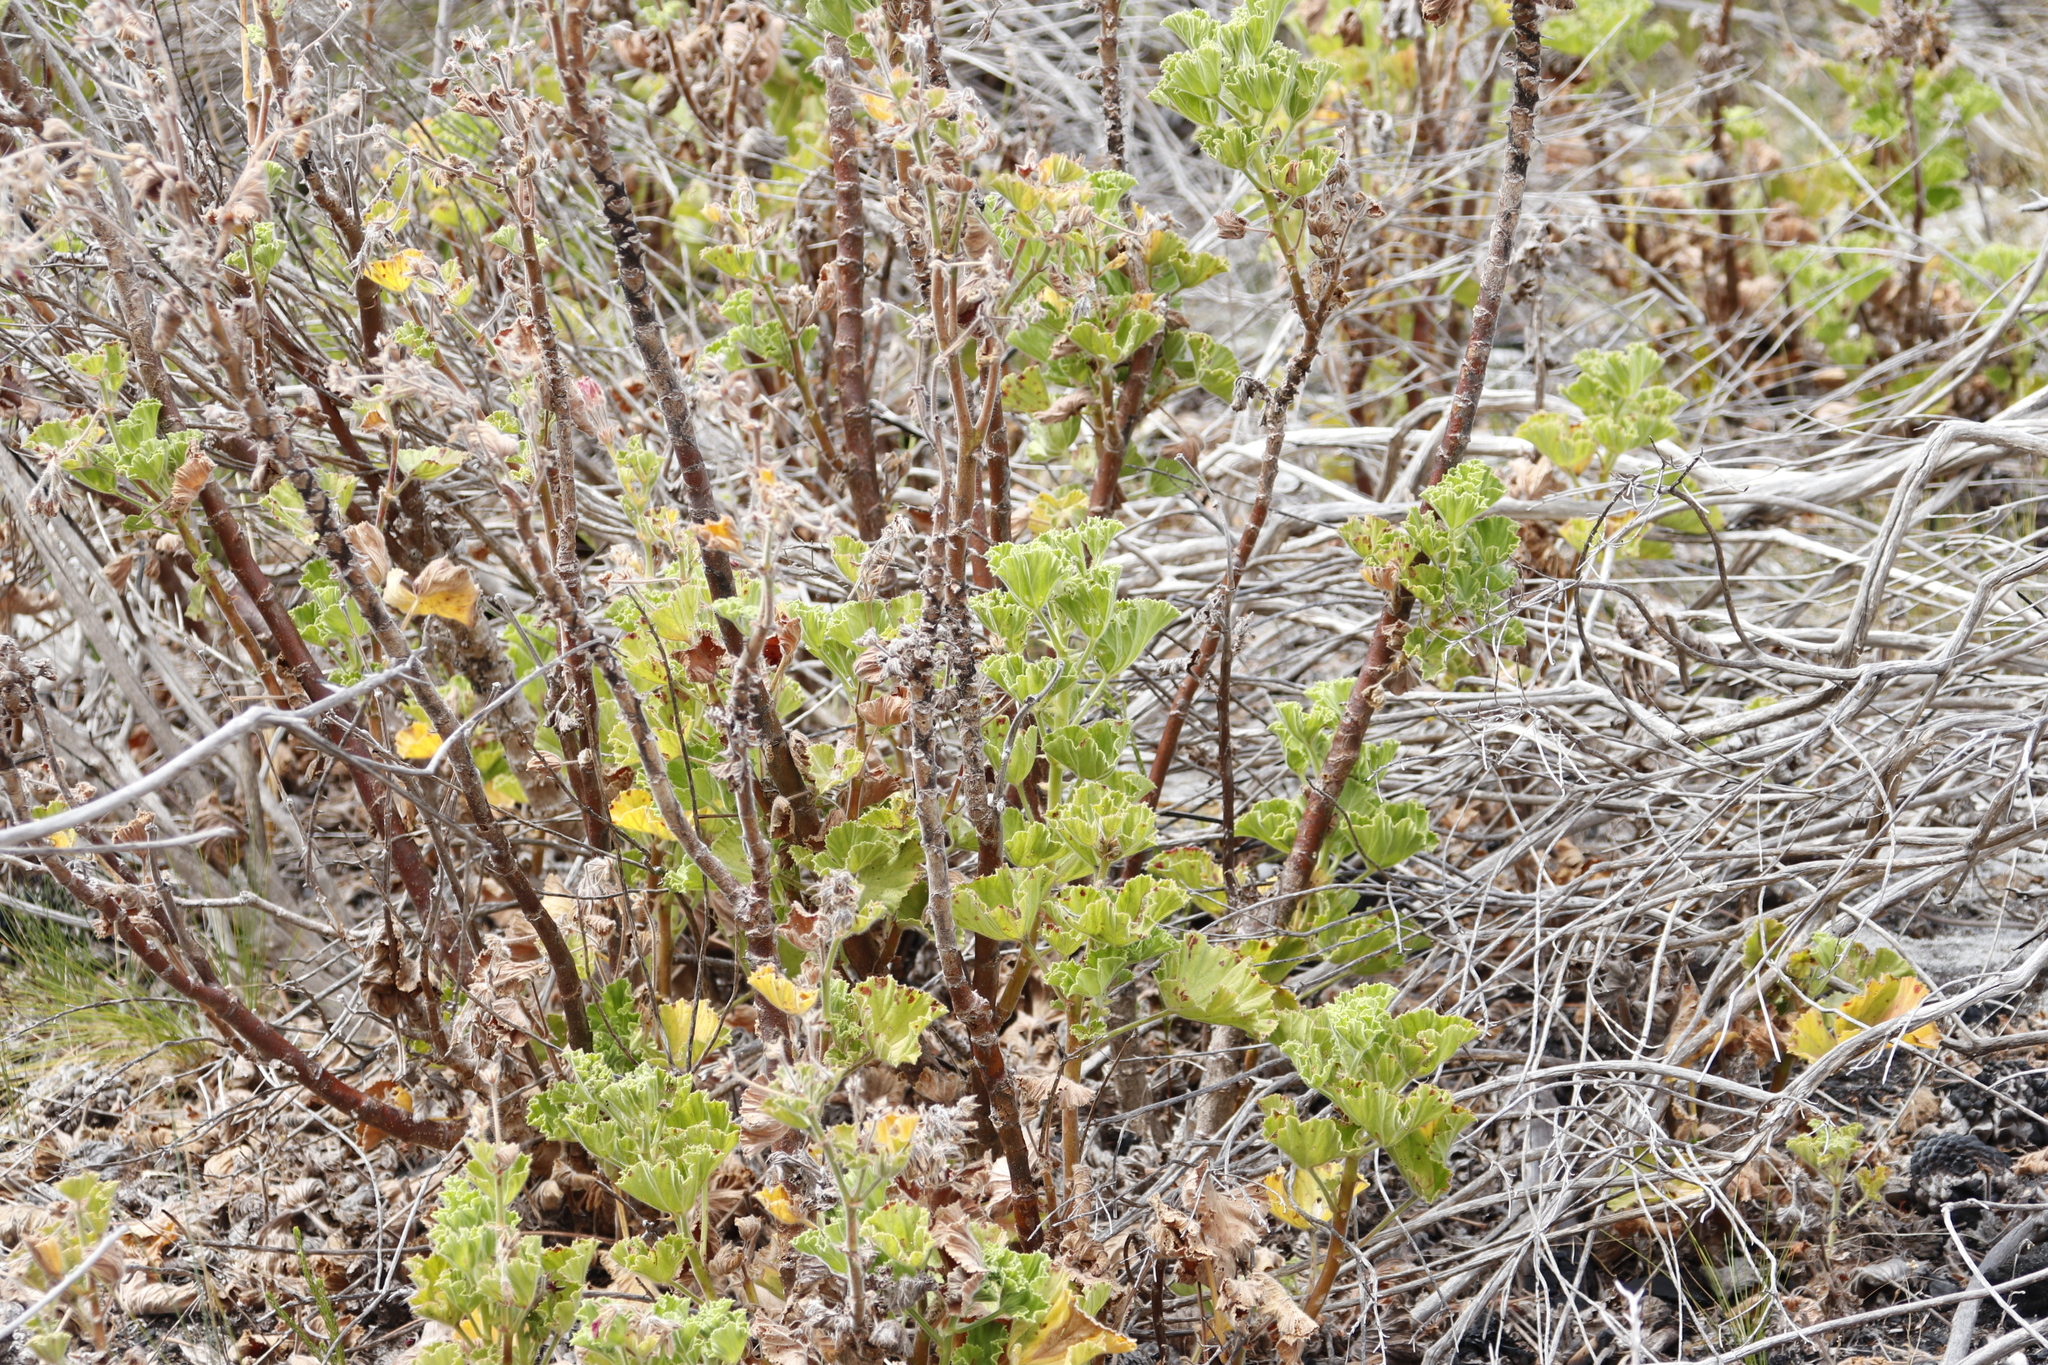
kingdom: Plantae
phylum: Tracheophyta
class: Magnoliopsida
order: Geraniales
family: Geraniaceae
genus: Pelargonium
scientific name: Pelargonium cucullatum
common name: Tree pelargonium
